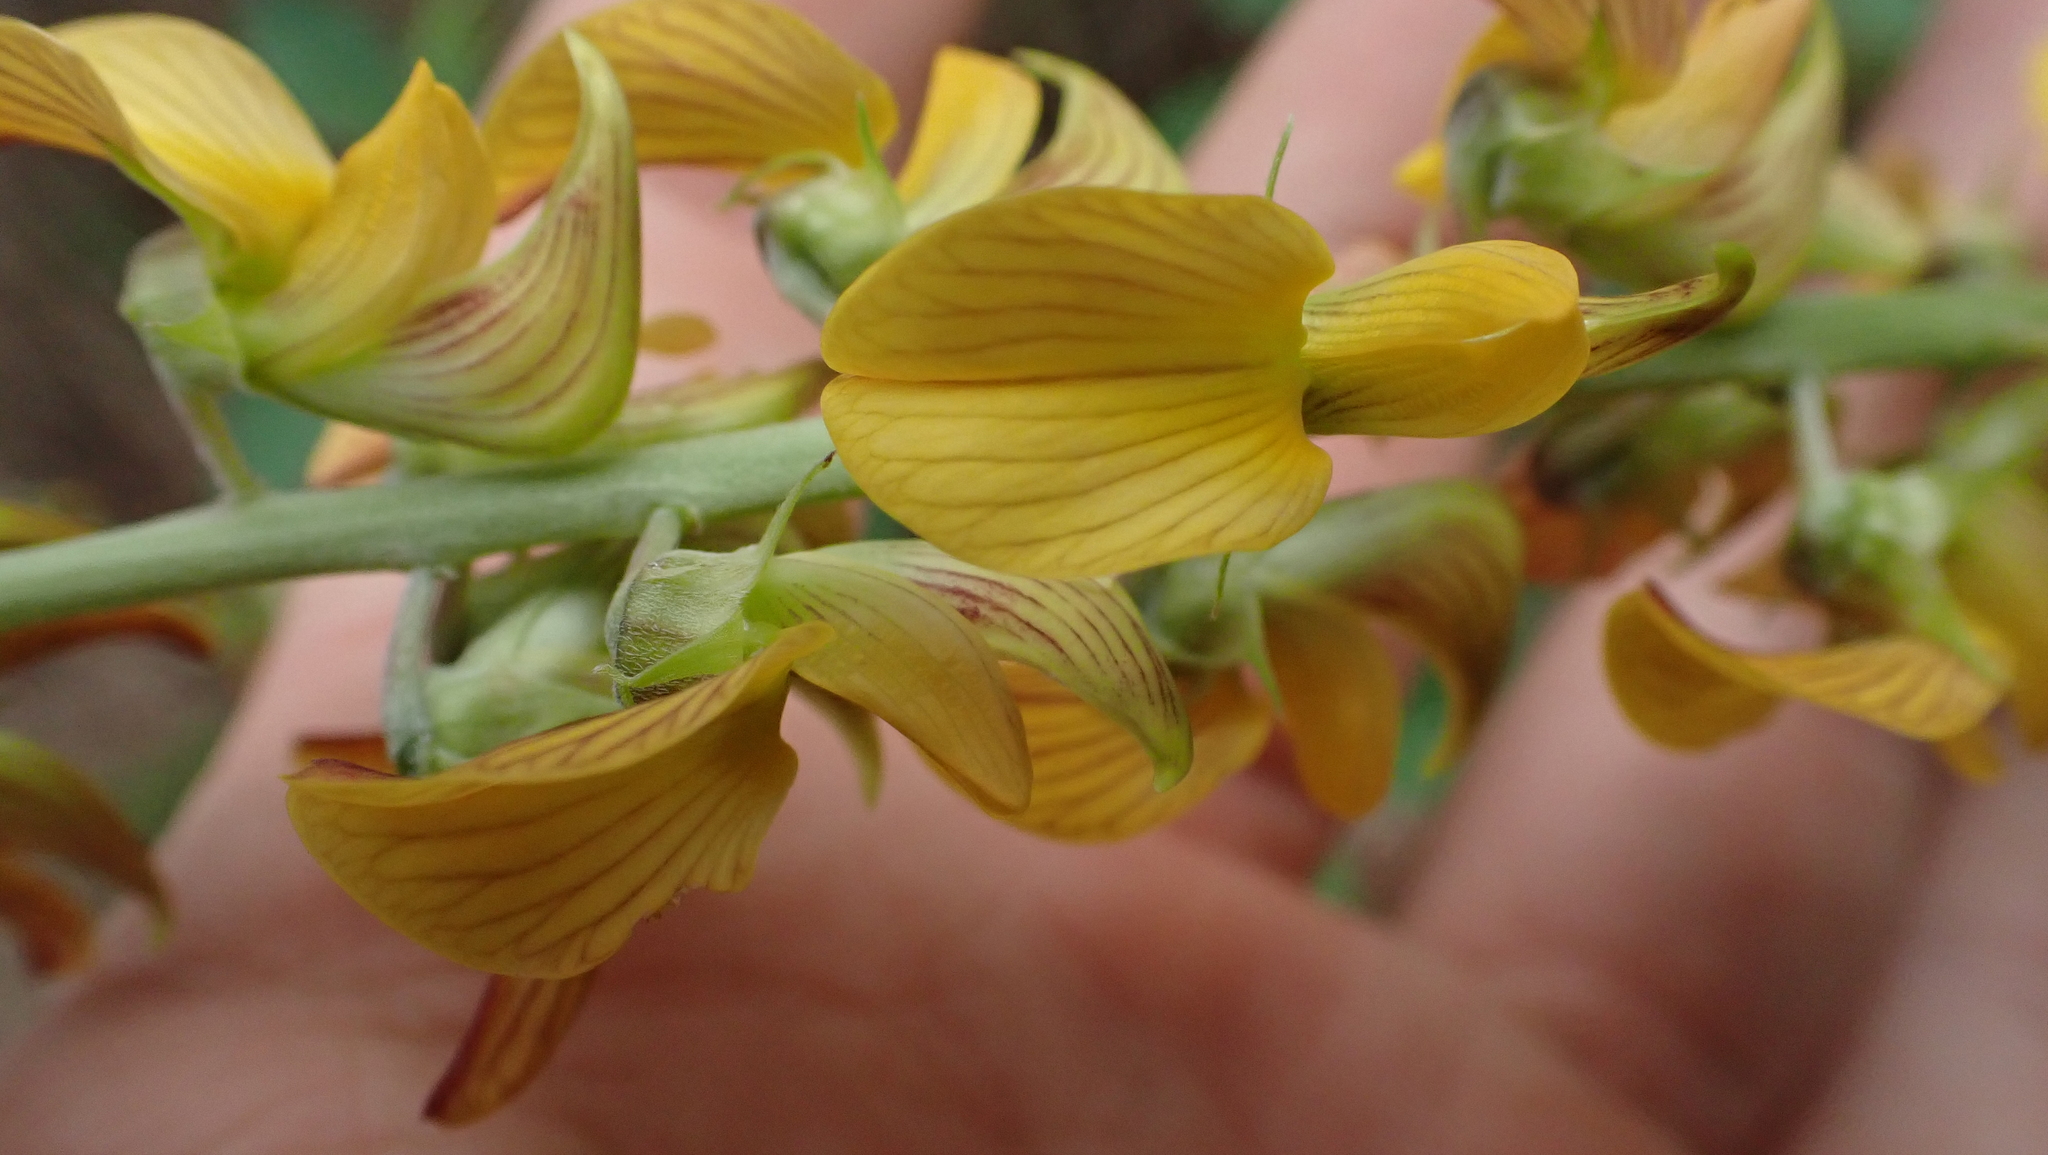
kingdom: Plantae
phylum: Tracheophyta
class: Magnoliopsida
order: Fabales
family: Fabaceae
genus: Crotalaria
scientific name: Crotalaria pallida
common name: Smooth rattlebox
